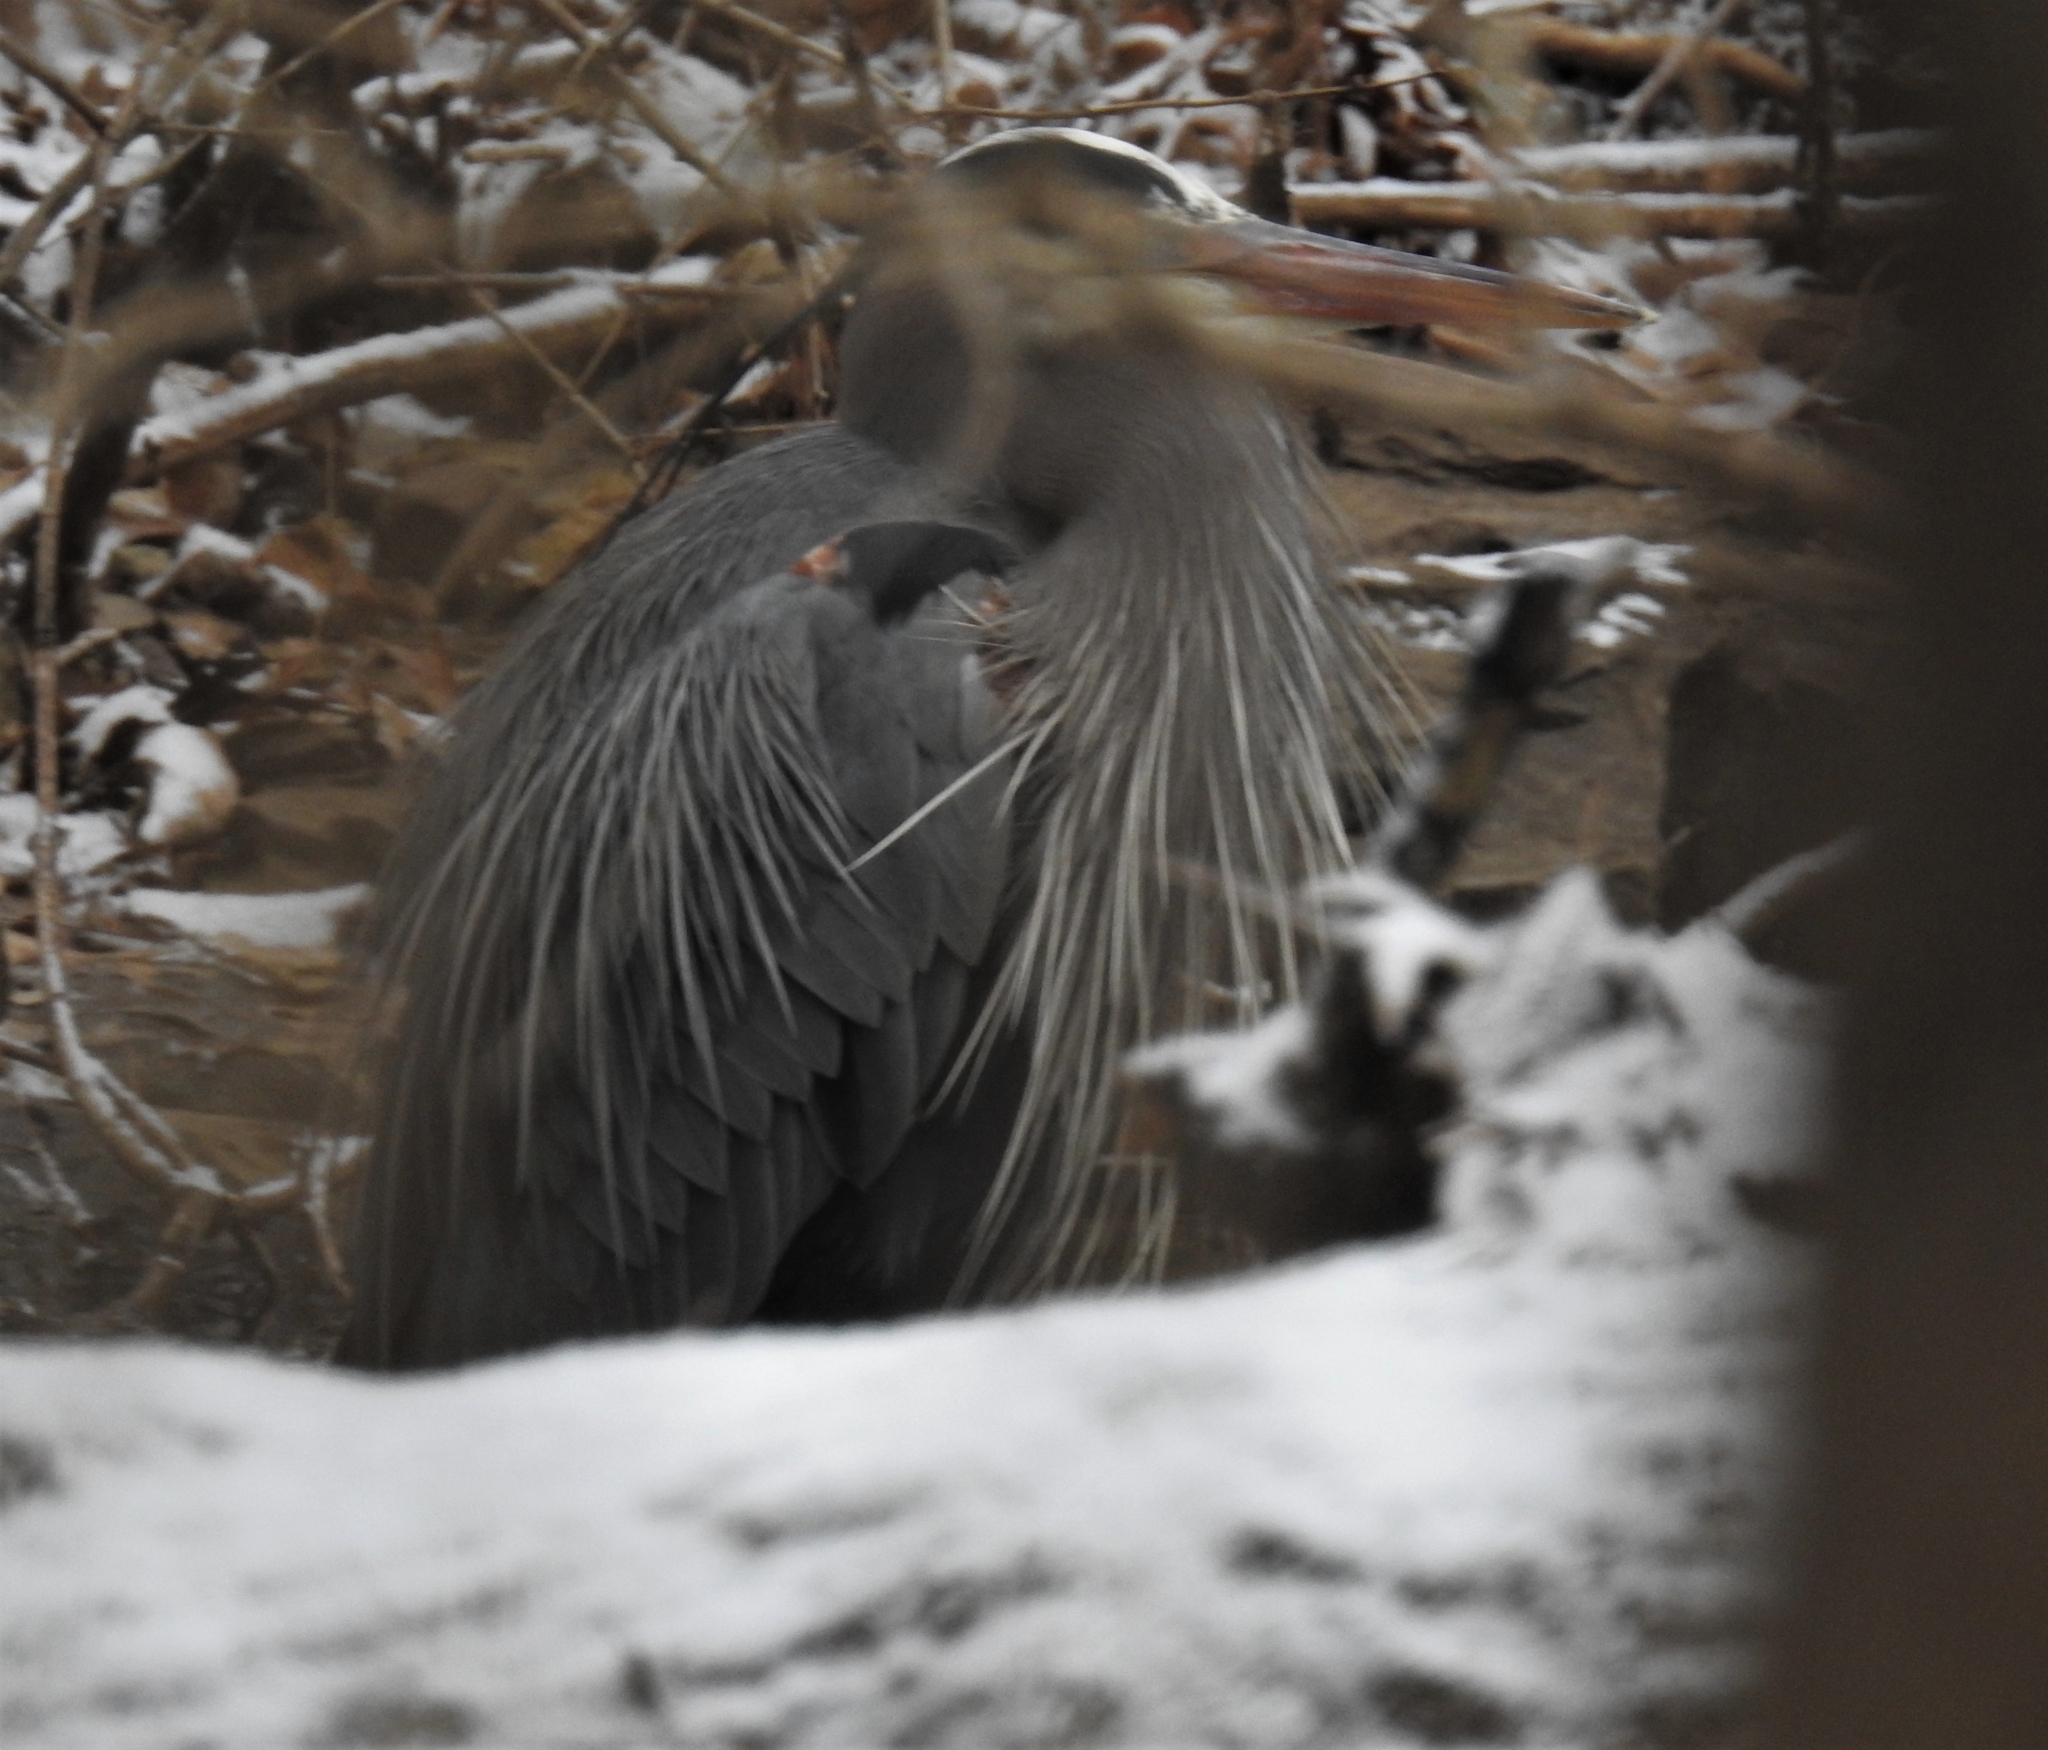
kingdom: Animalia
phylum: Chordata
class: Aves
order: Pelecaniformes
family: Ardeidae
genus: Ardea
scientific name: Ardea herodias
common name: Great blue heron
